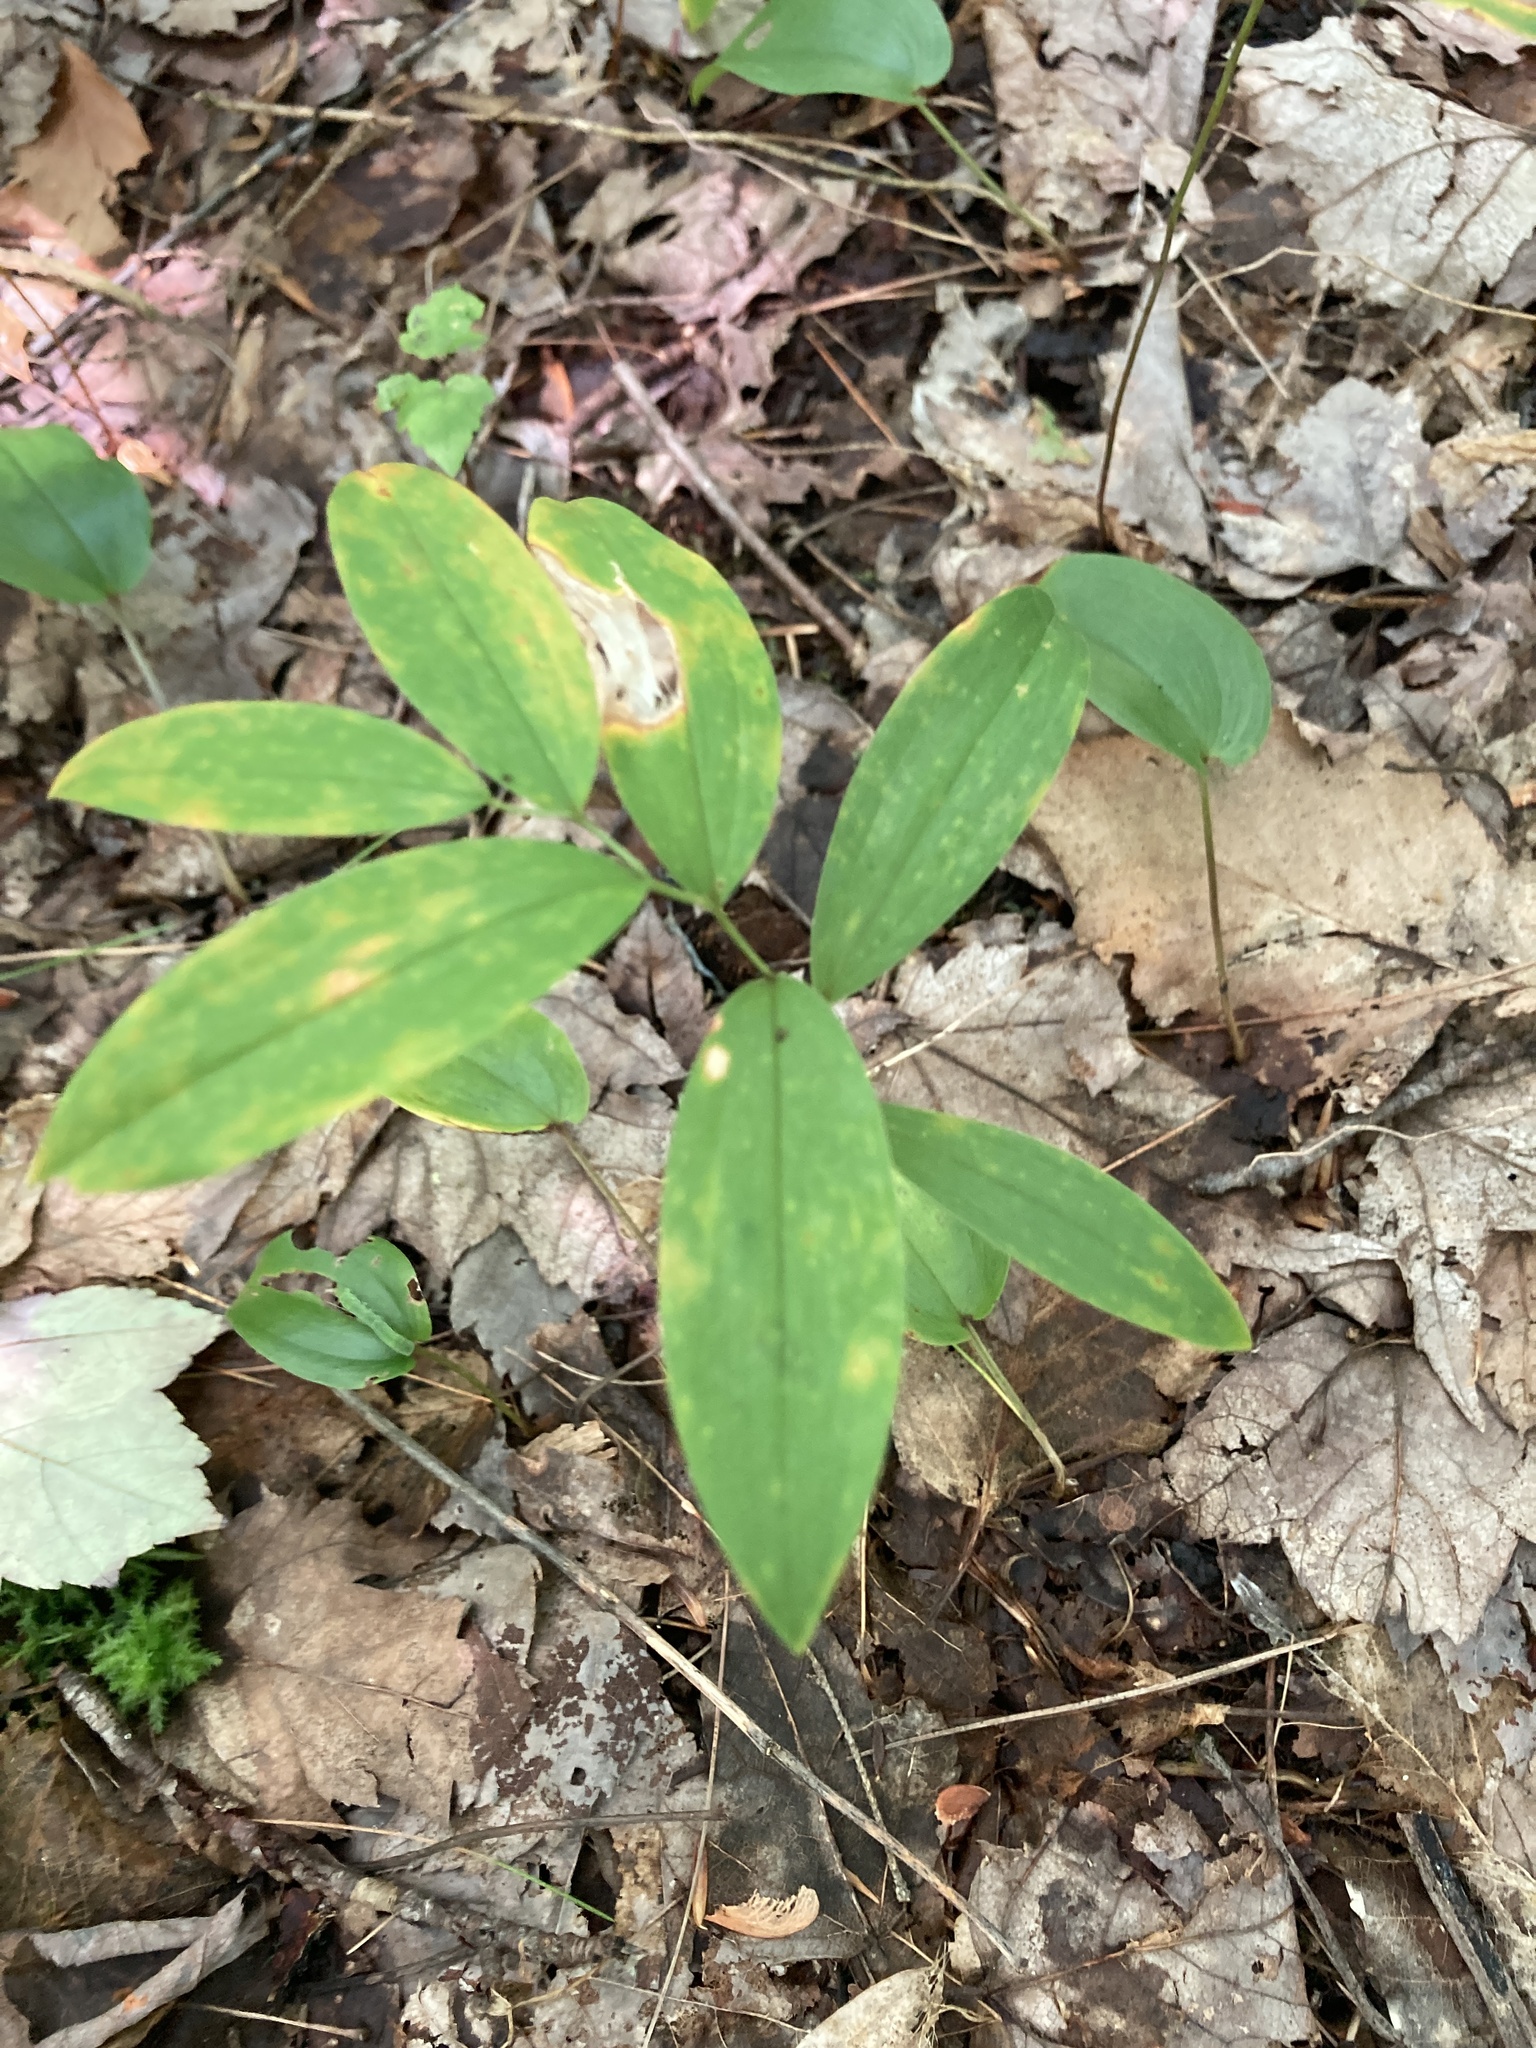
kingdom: Plantae
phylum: Tracheophyta
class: Liliopsida
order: Liliales
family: Colchicaceae
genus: Uvularia
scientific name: Uvularia sessilifolia
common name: Straw-lily
